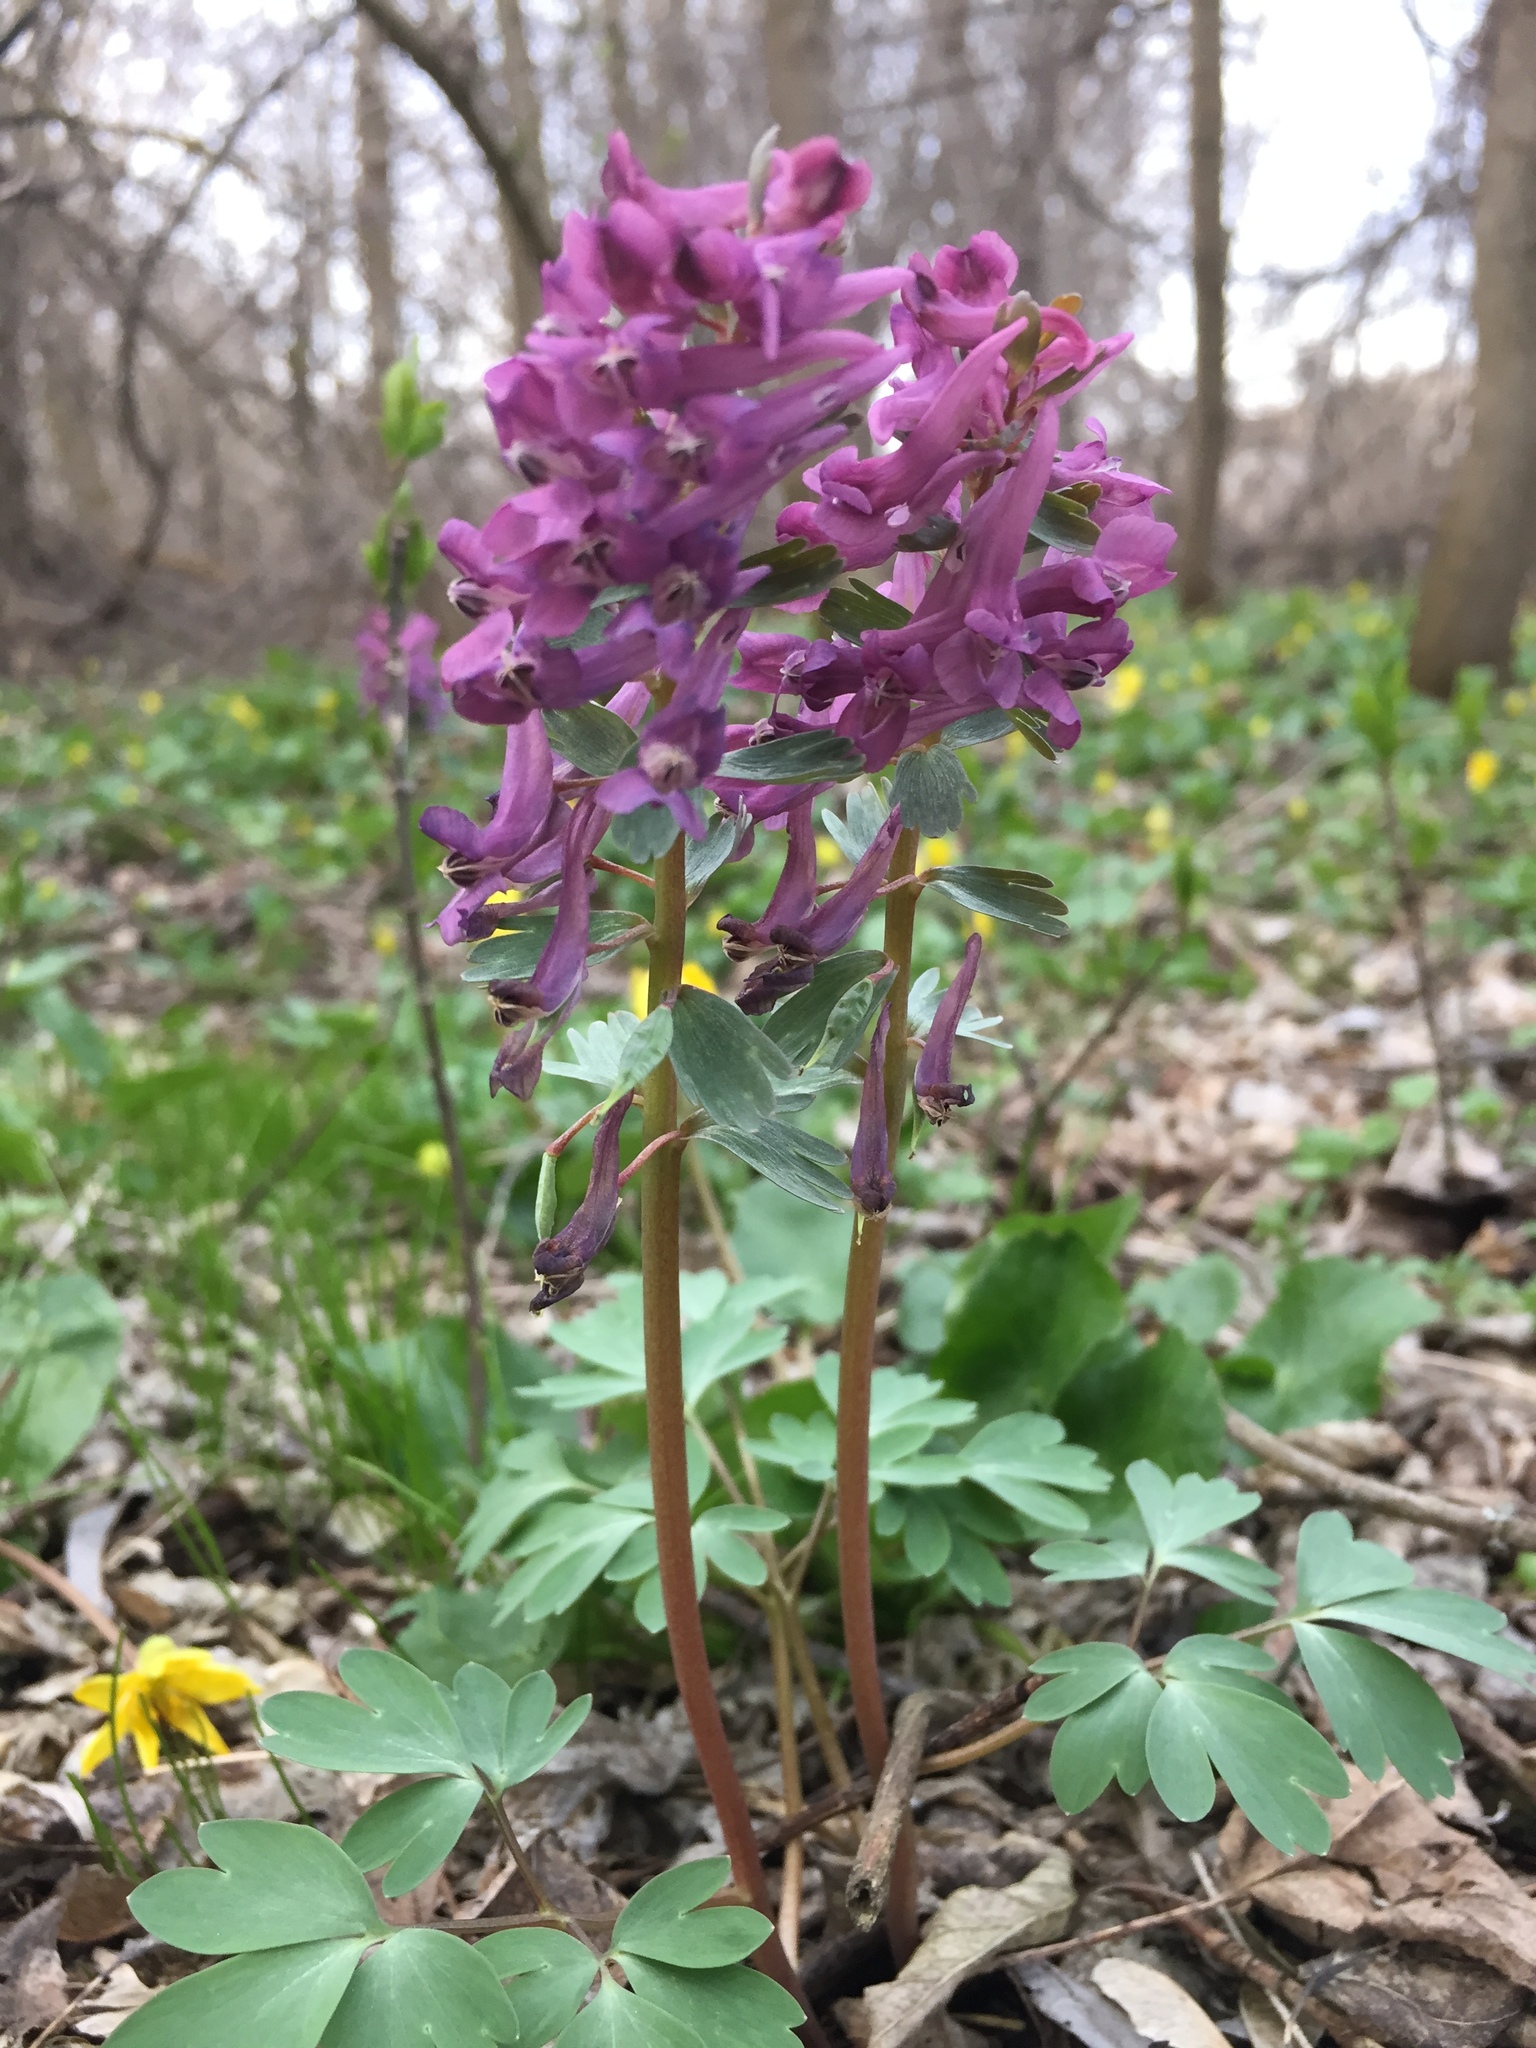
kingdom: Plantae
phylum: Tracheophyta
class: Magnoliopsida
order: Ranunculales
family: Papaveraceae
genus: Corydalis
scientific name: Corydalis solida
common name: Bird-in-a-bush
